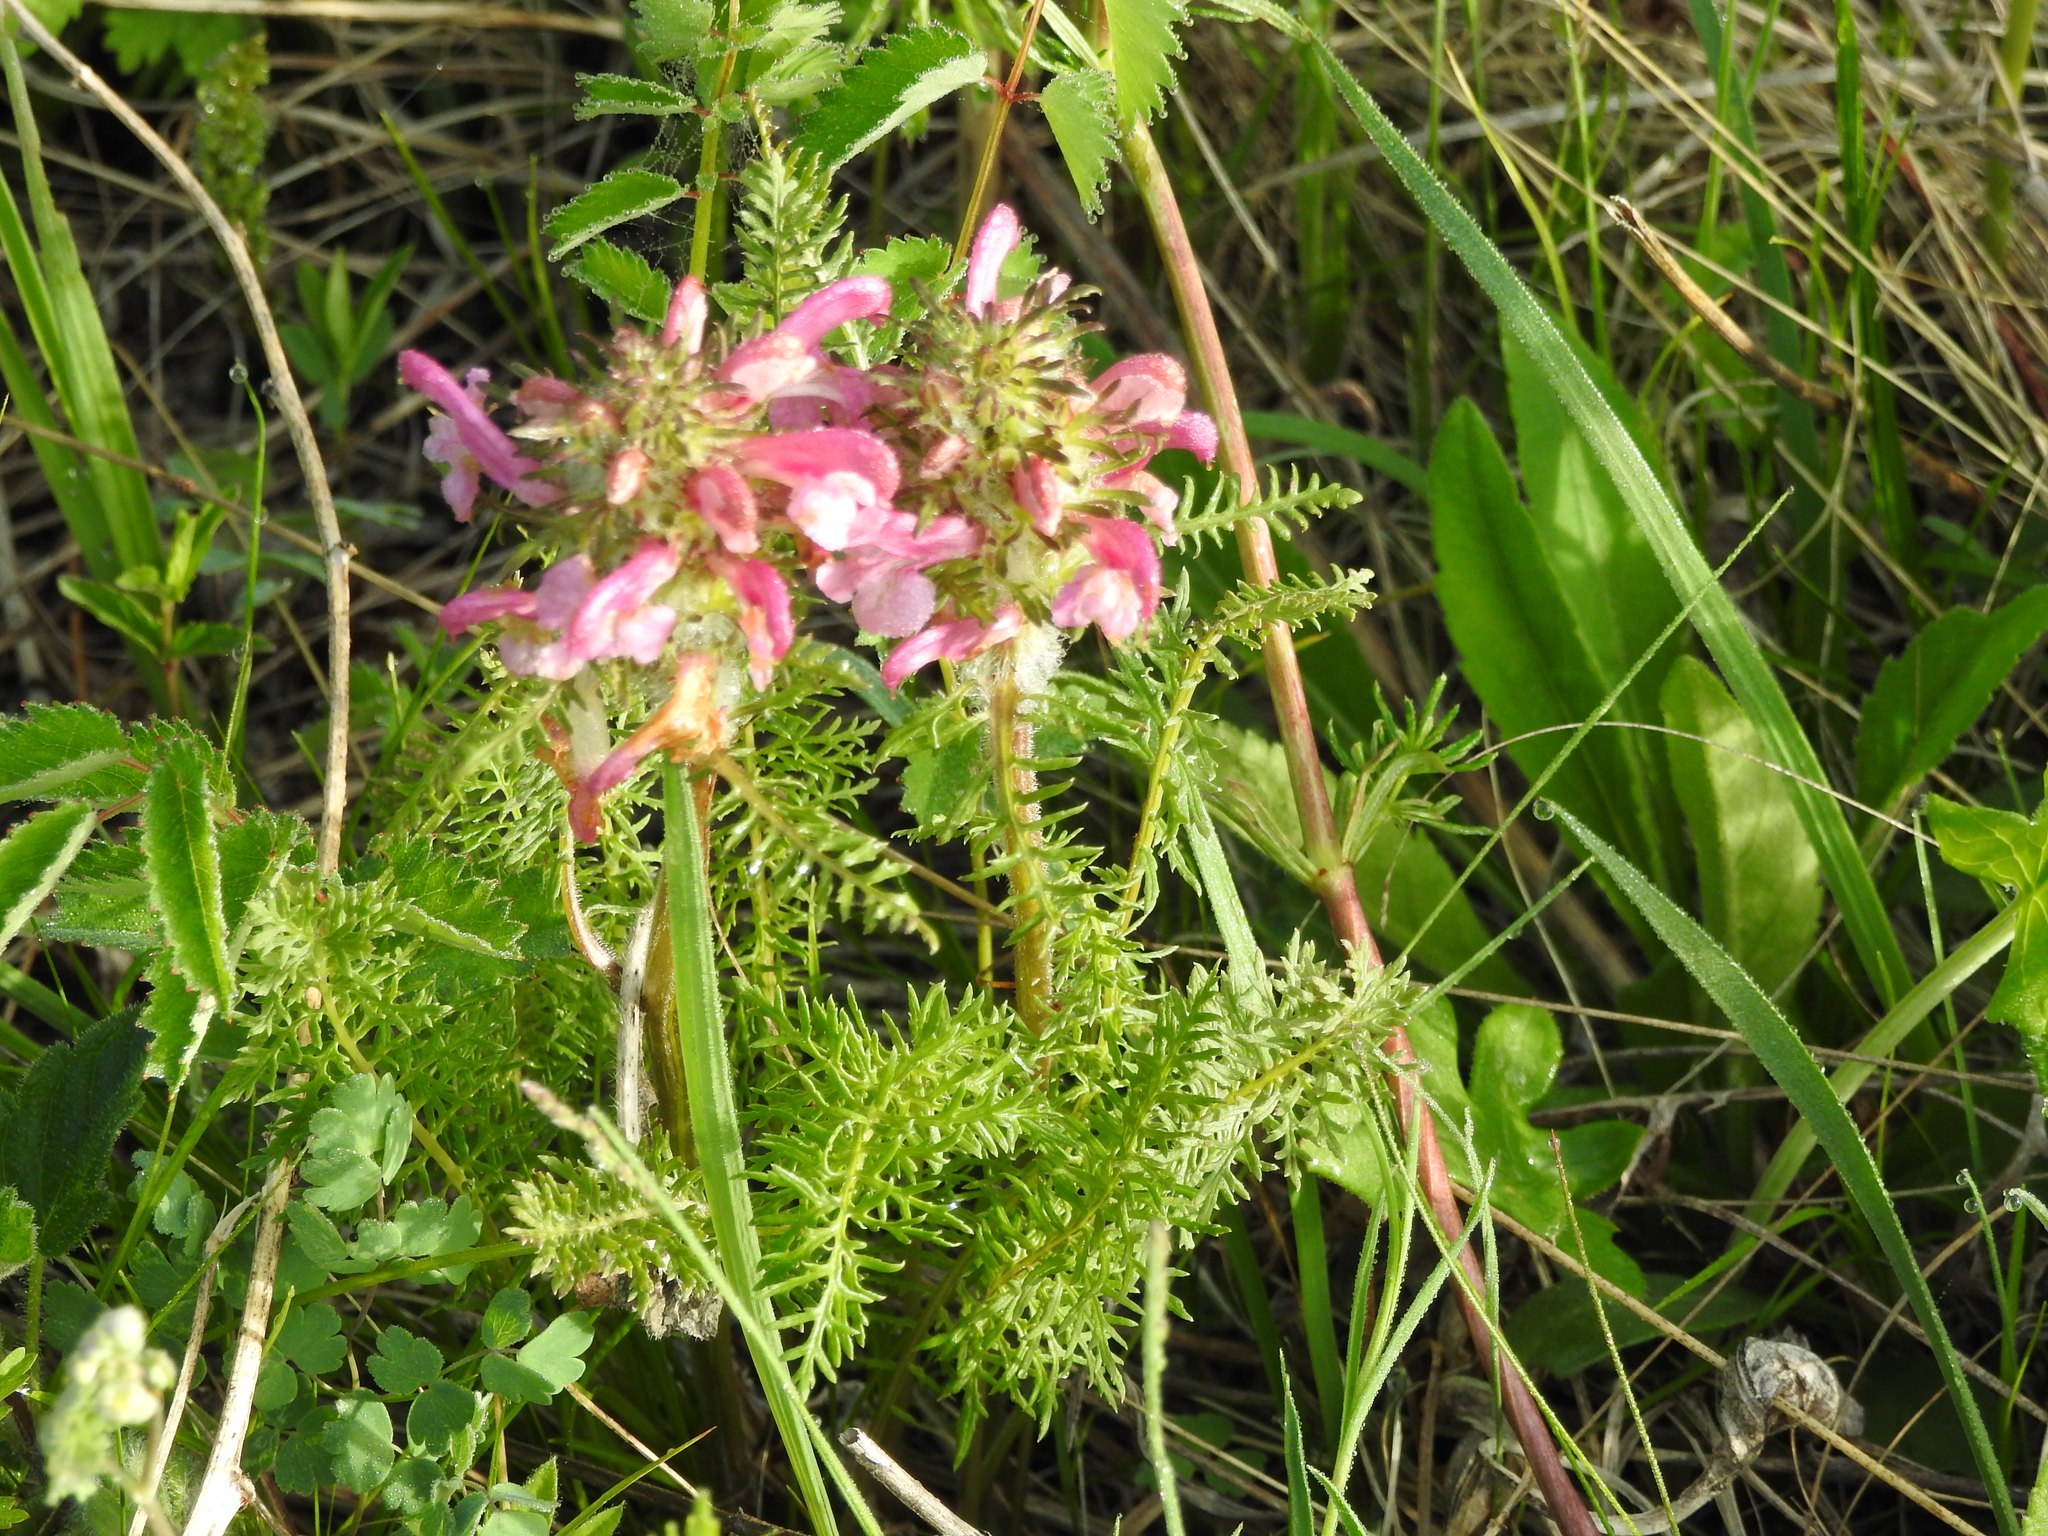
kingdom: Plantae
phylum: Tracheophyta
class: Magnoliopsida
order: Lamiales
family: Orobanchaceae
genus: Pedicularis
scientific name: Pedicularis rubens
